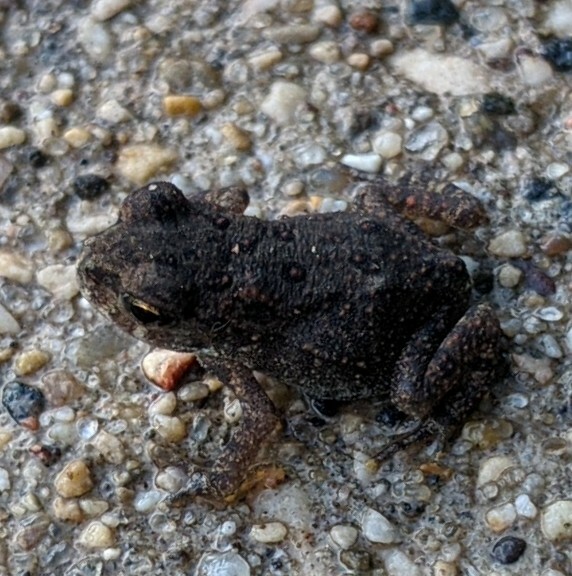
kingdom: Animalia
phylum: Chordata
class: Amphibia
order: Anura
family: Bufonidae
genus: Anaxyrus
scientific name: Anaxyrus americanus
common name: American toad
